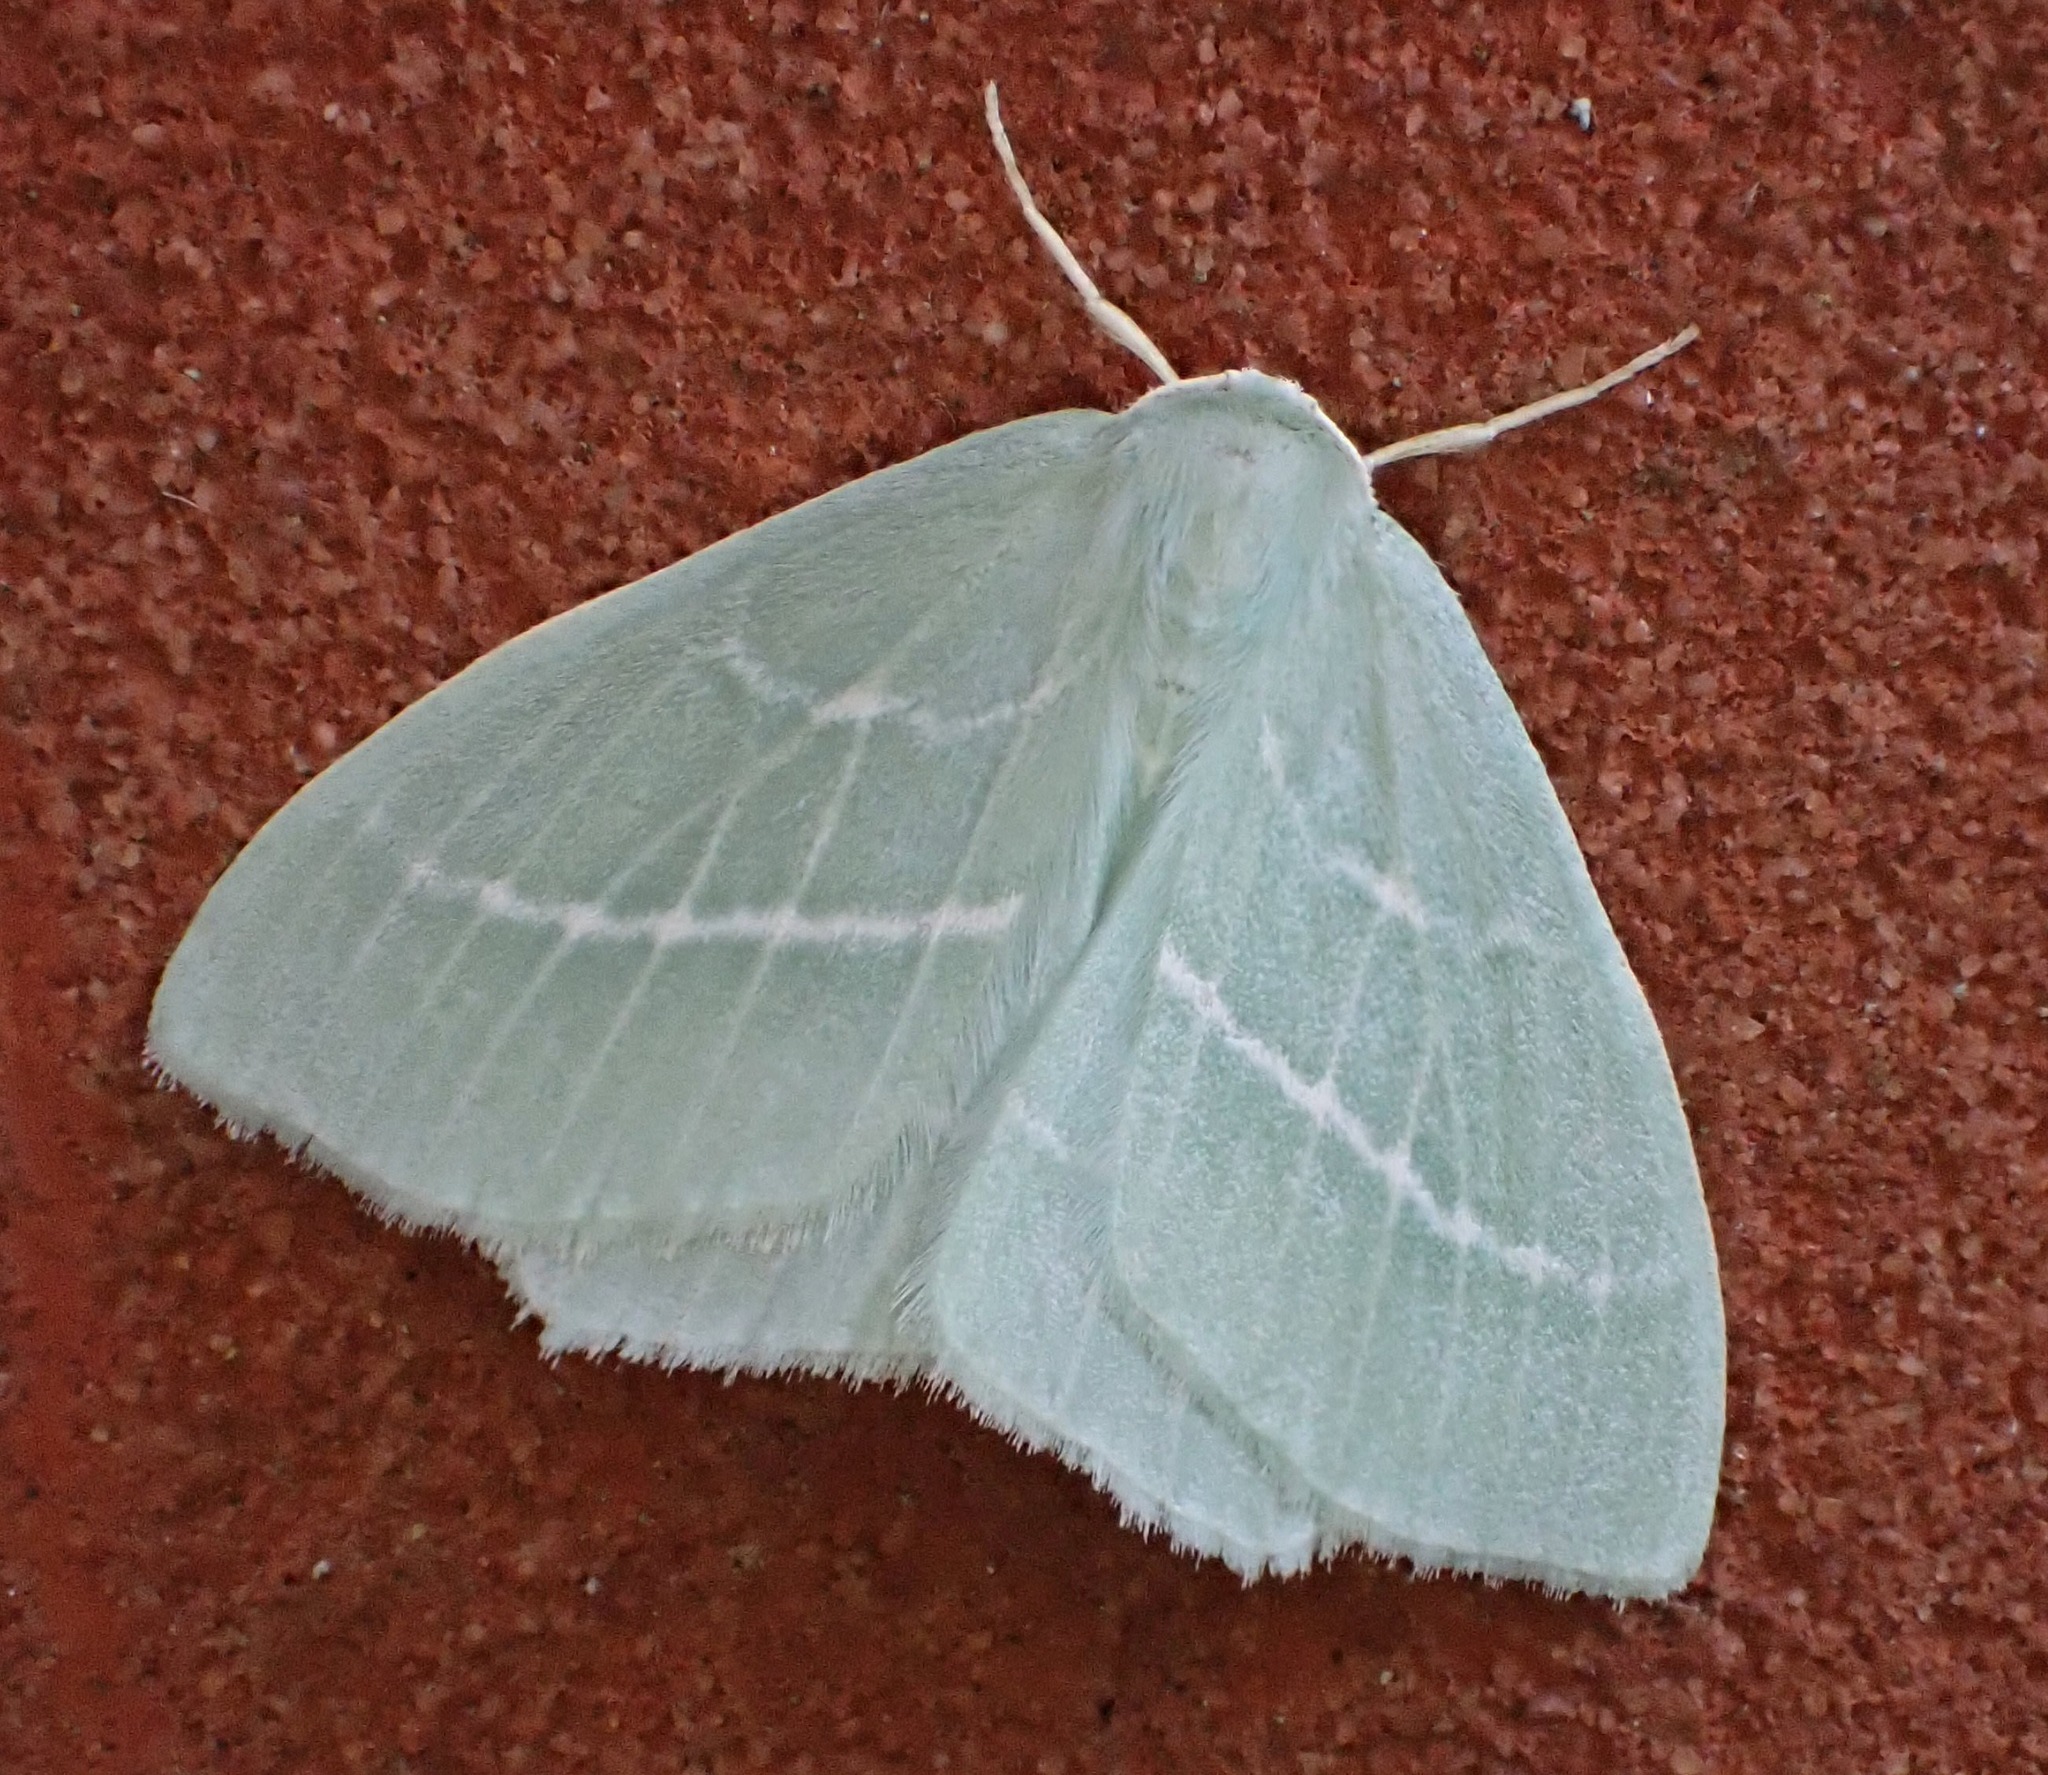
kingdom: Animalia
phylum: Arthropoda
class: Insecta
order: Lepidoptera
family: Geometridae
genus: Hemistola
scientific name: Hemistola chrysoprasaria
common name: Small emerald
